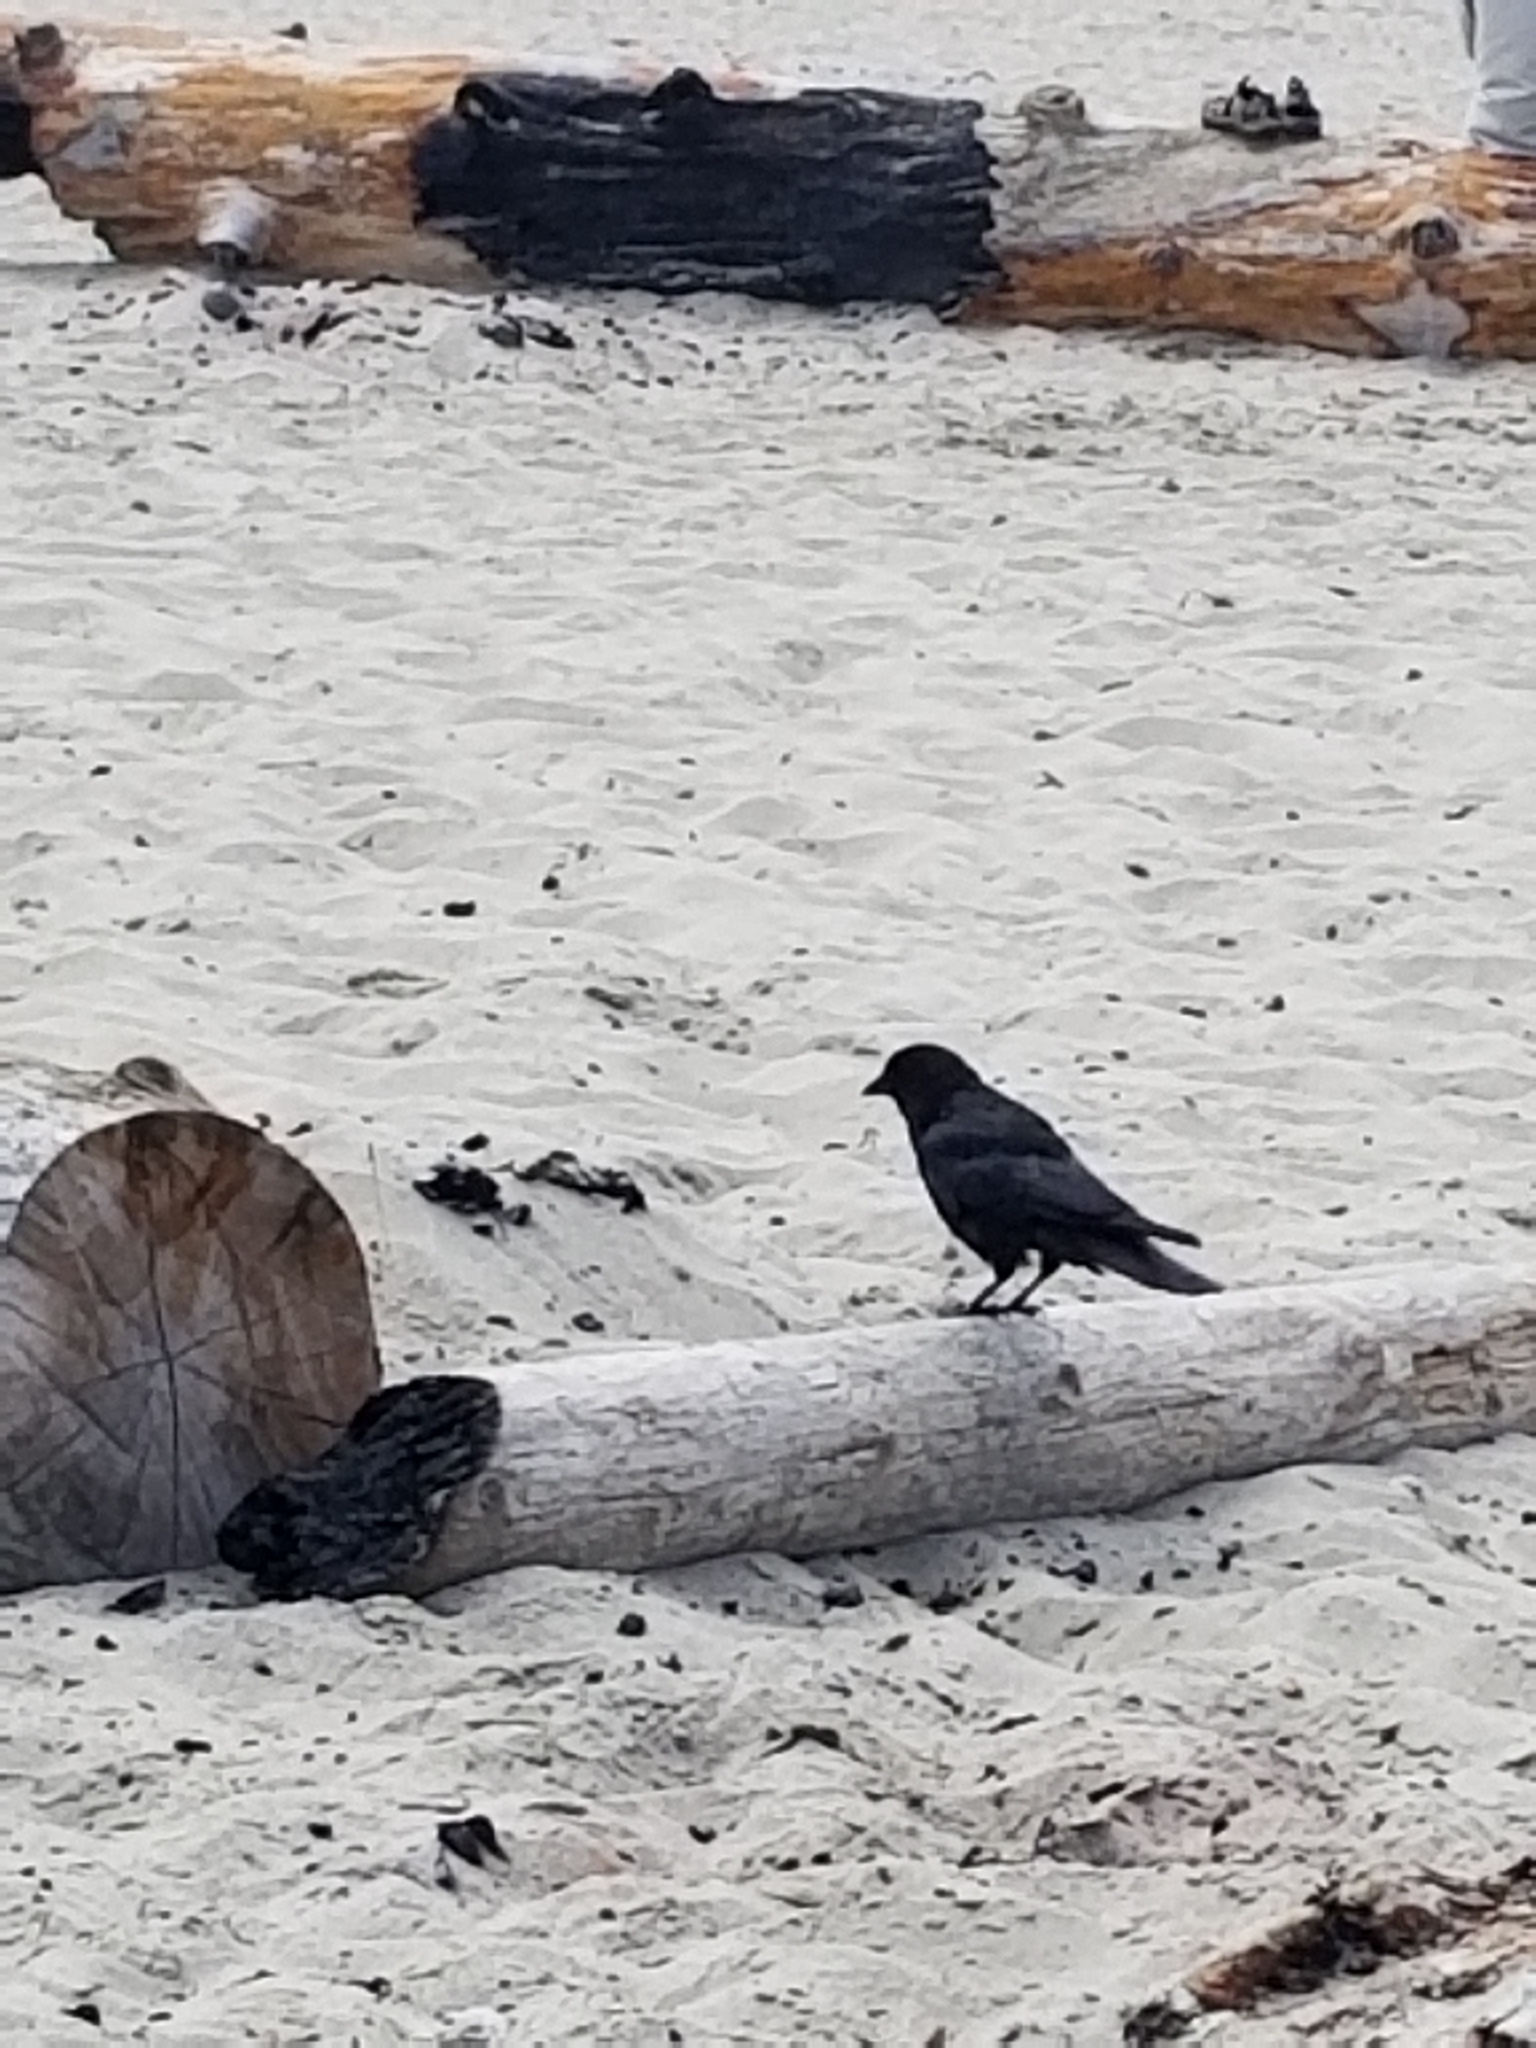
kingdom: Animalia
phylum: Chordata
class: Aves
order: Passeriformes
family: Corvidae
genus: Corvus
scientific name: Corvus brachyrhynchos
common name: American crow
